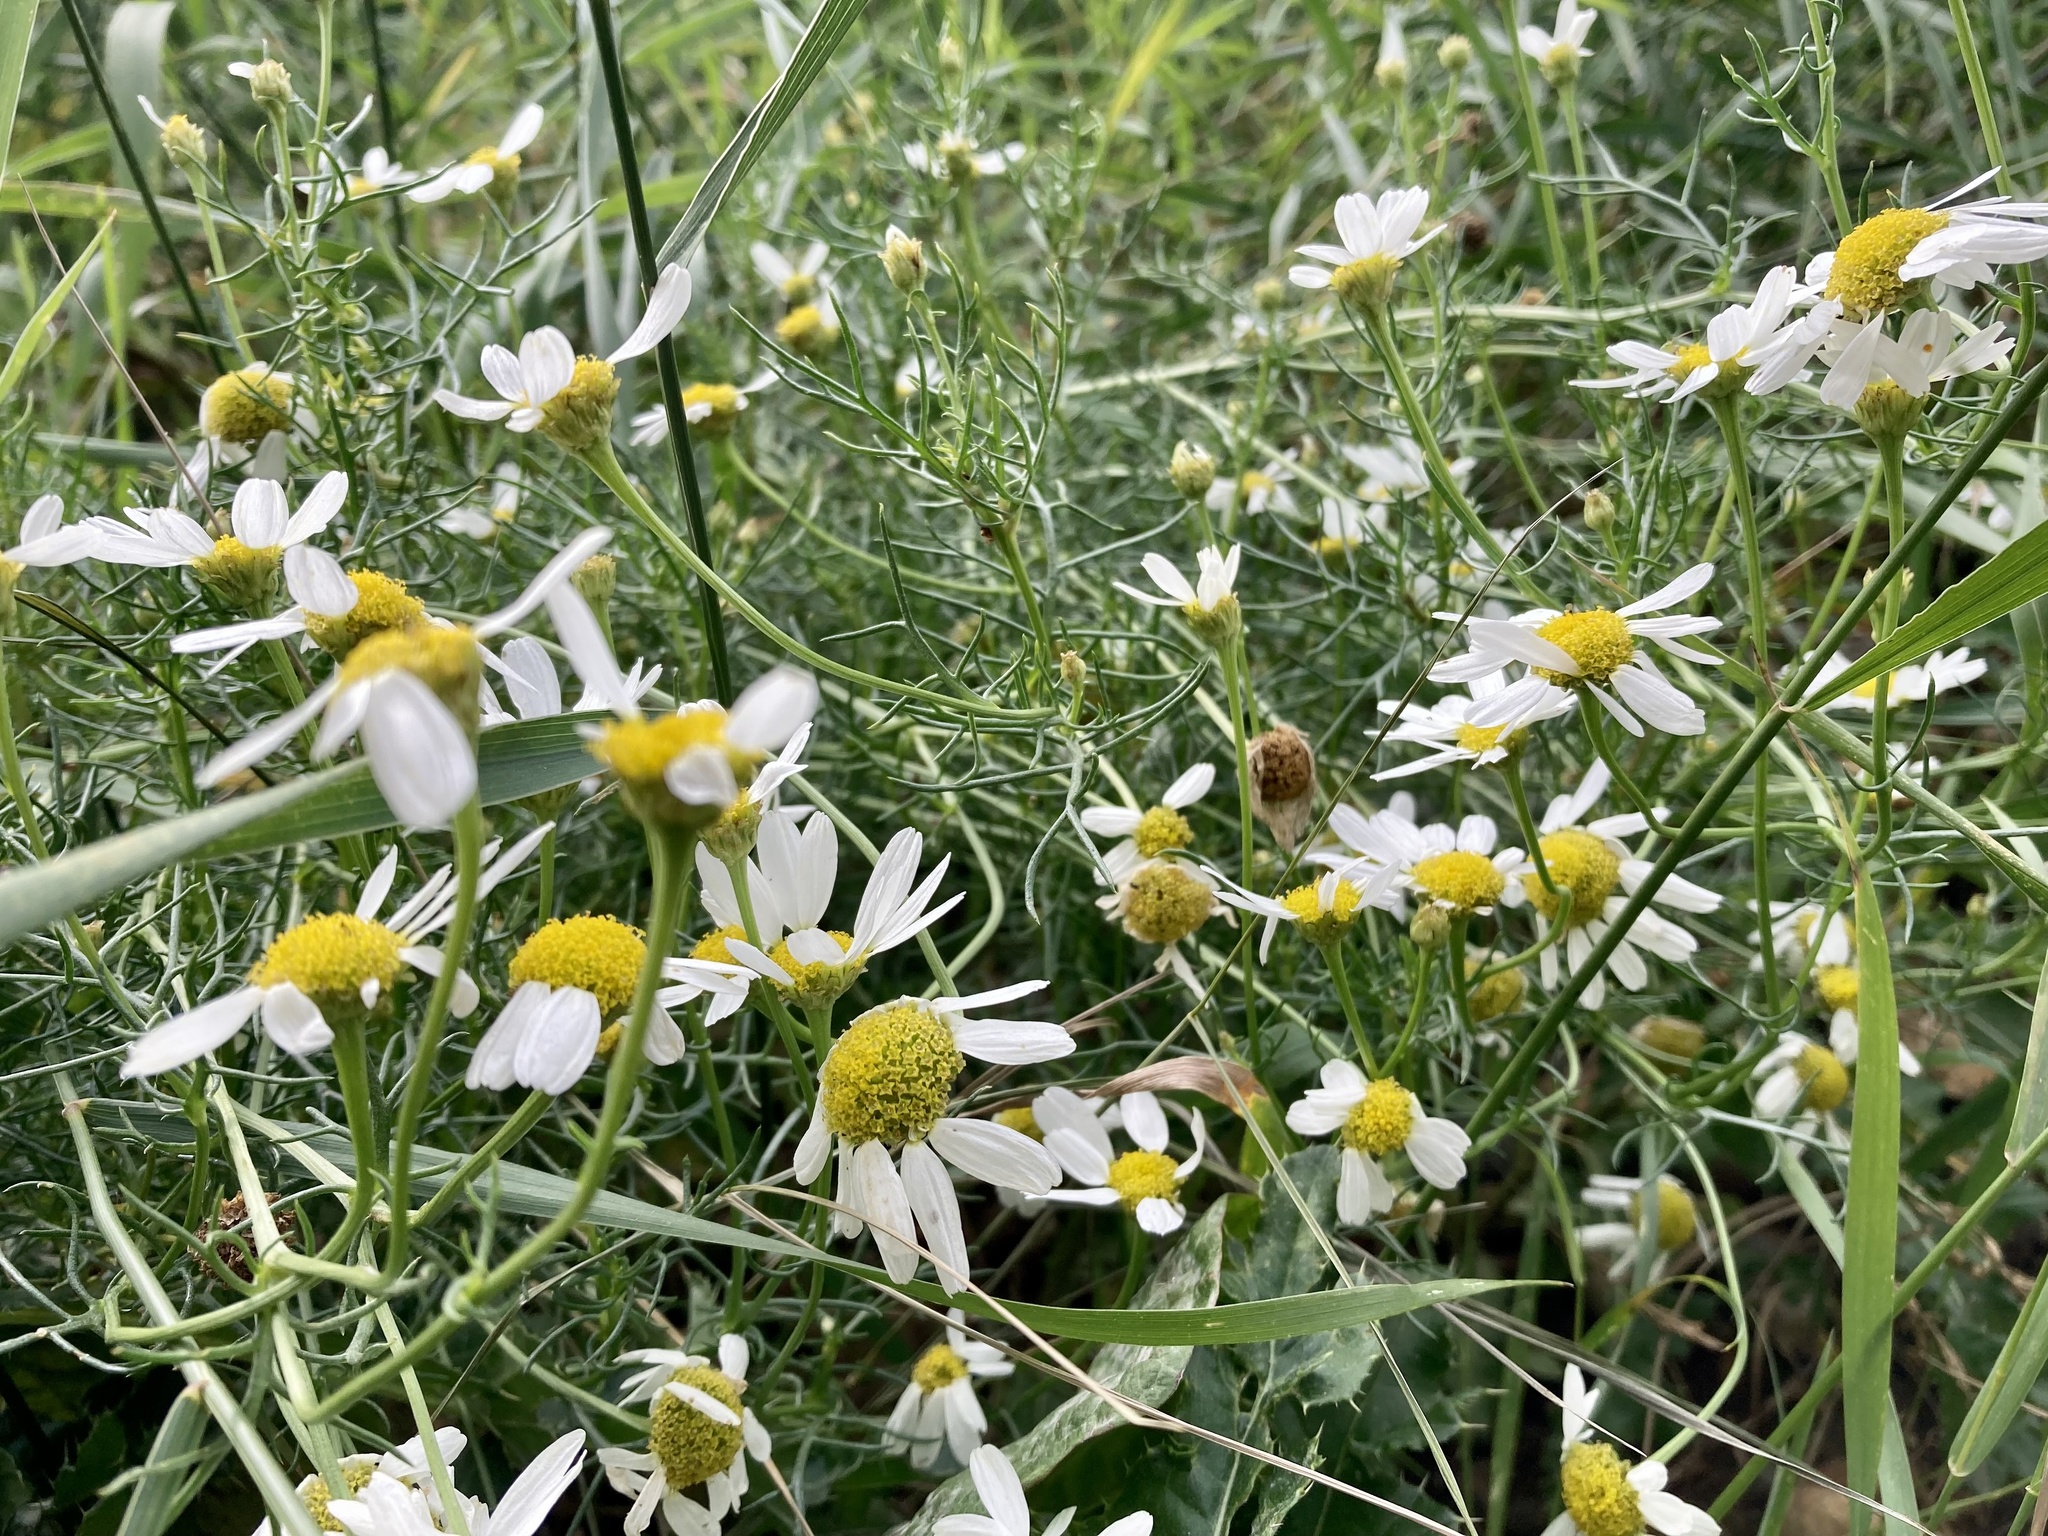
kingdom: Plantae
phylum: Tracheophyta
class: Magnoliopsida
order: Asterales
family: Asteraceae
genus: Tripleurospermum
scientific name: Tripleurospermum inodorum
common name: Scentless mayweed
